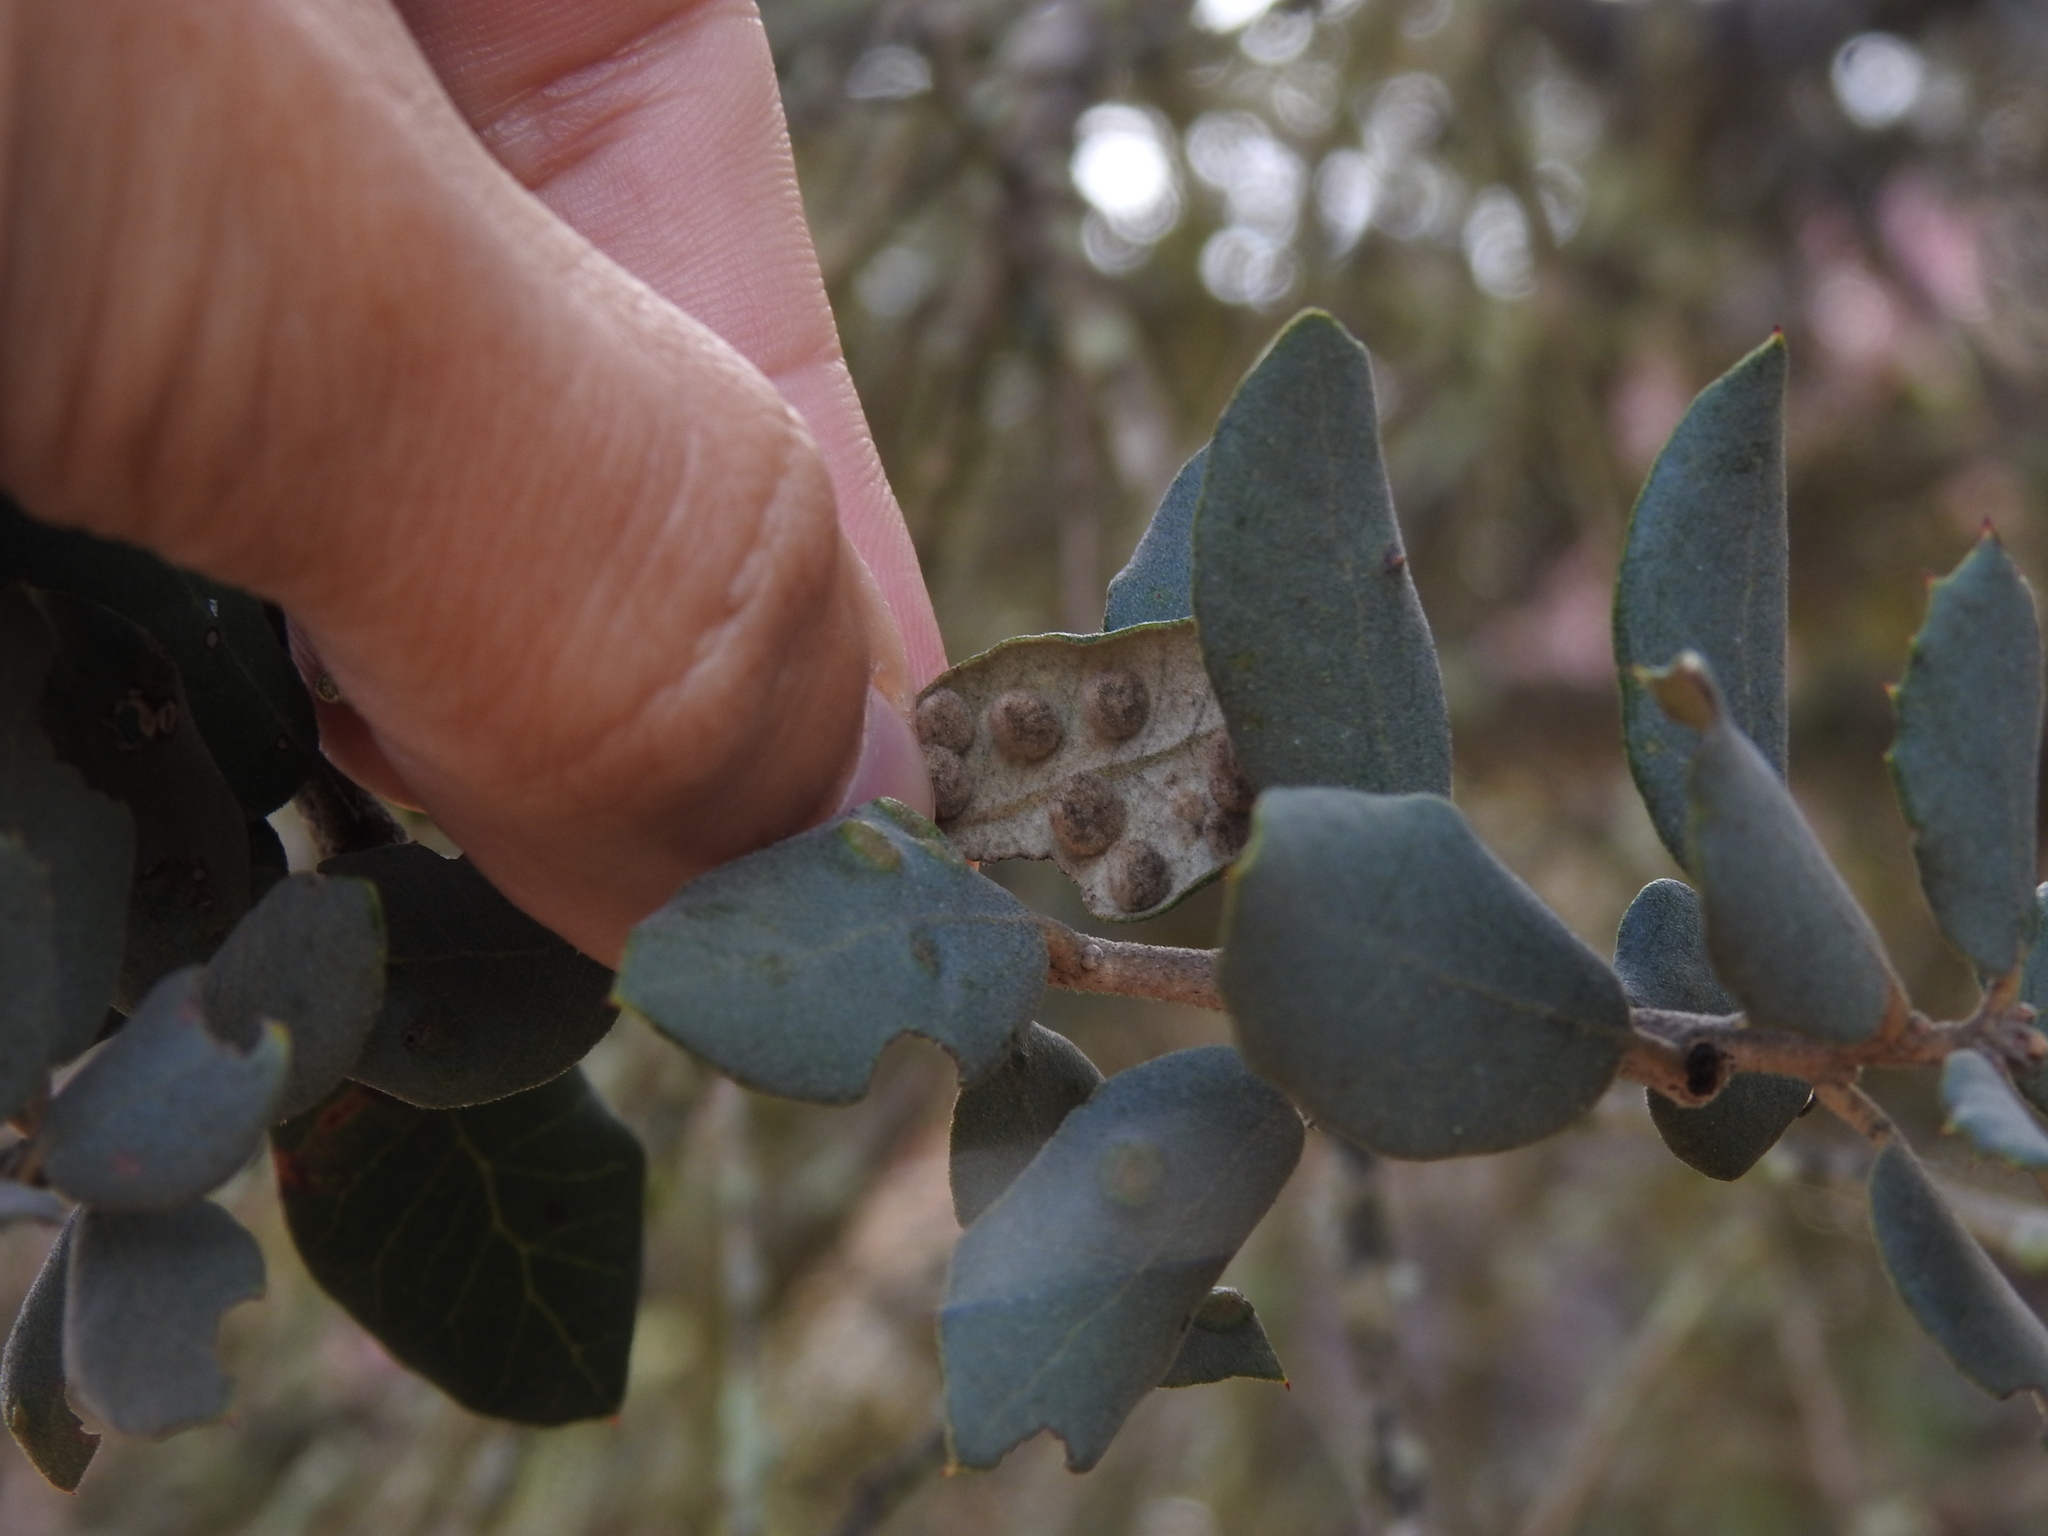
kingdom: Animalia
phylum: Arthropoda
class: Insecta
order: Diptera
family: Cecidomyiidae
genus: Dryomyia
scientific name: Dryomyia lichtensteinii
